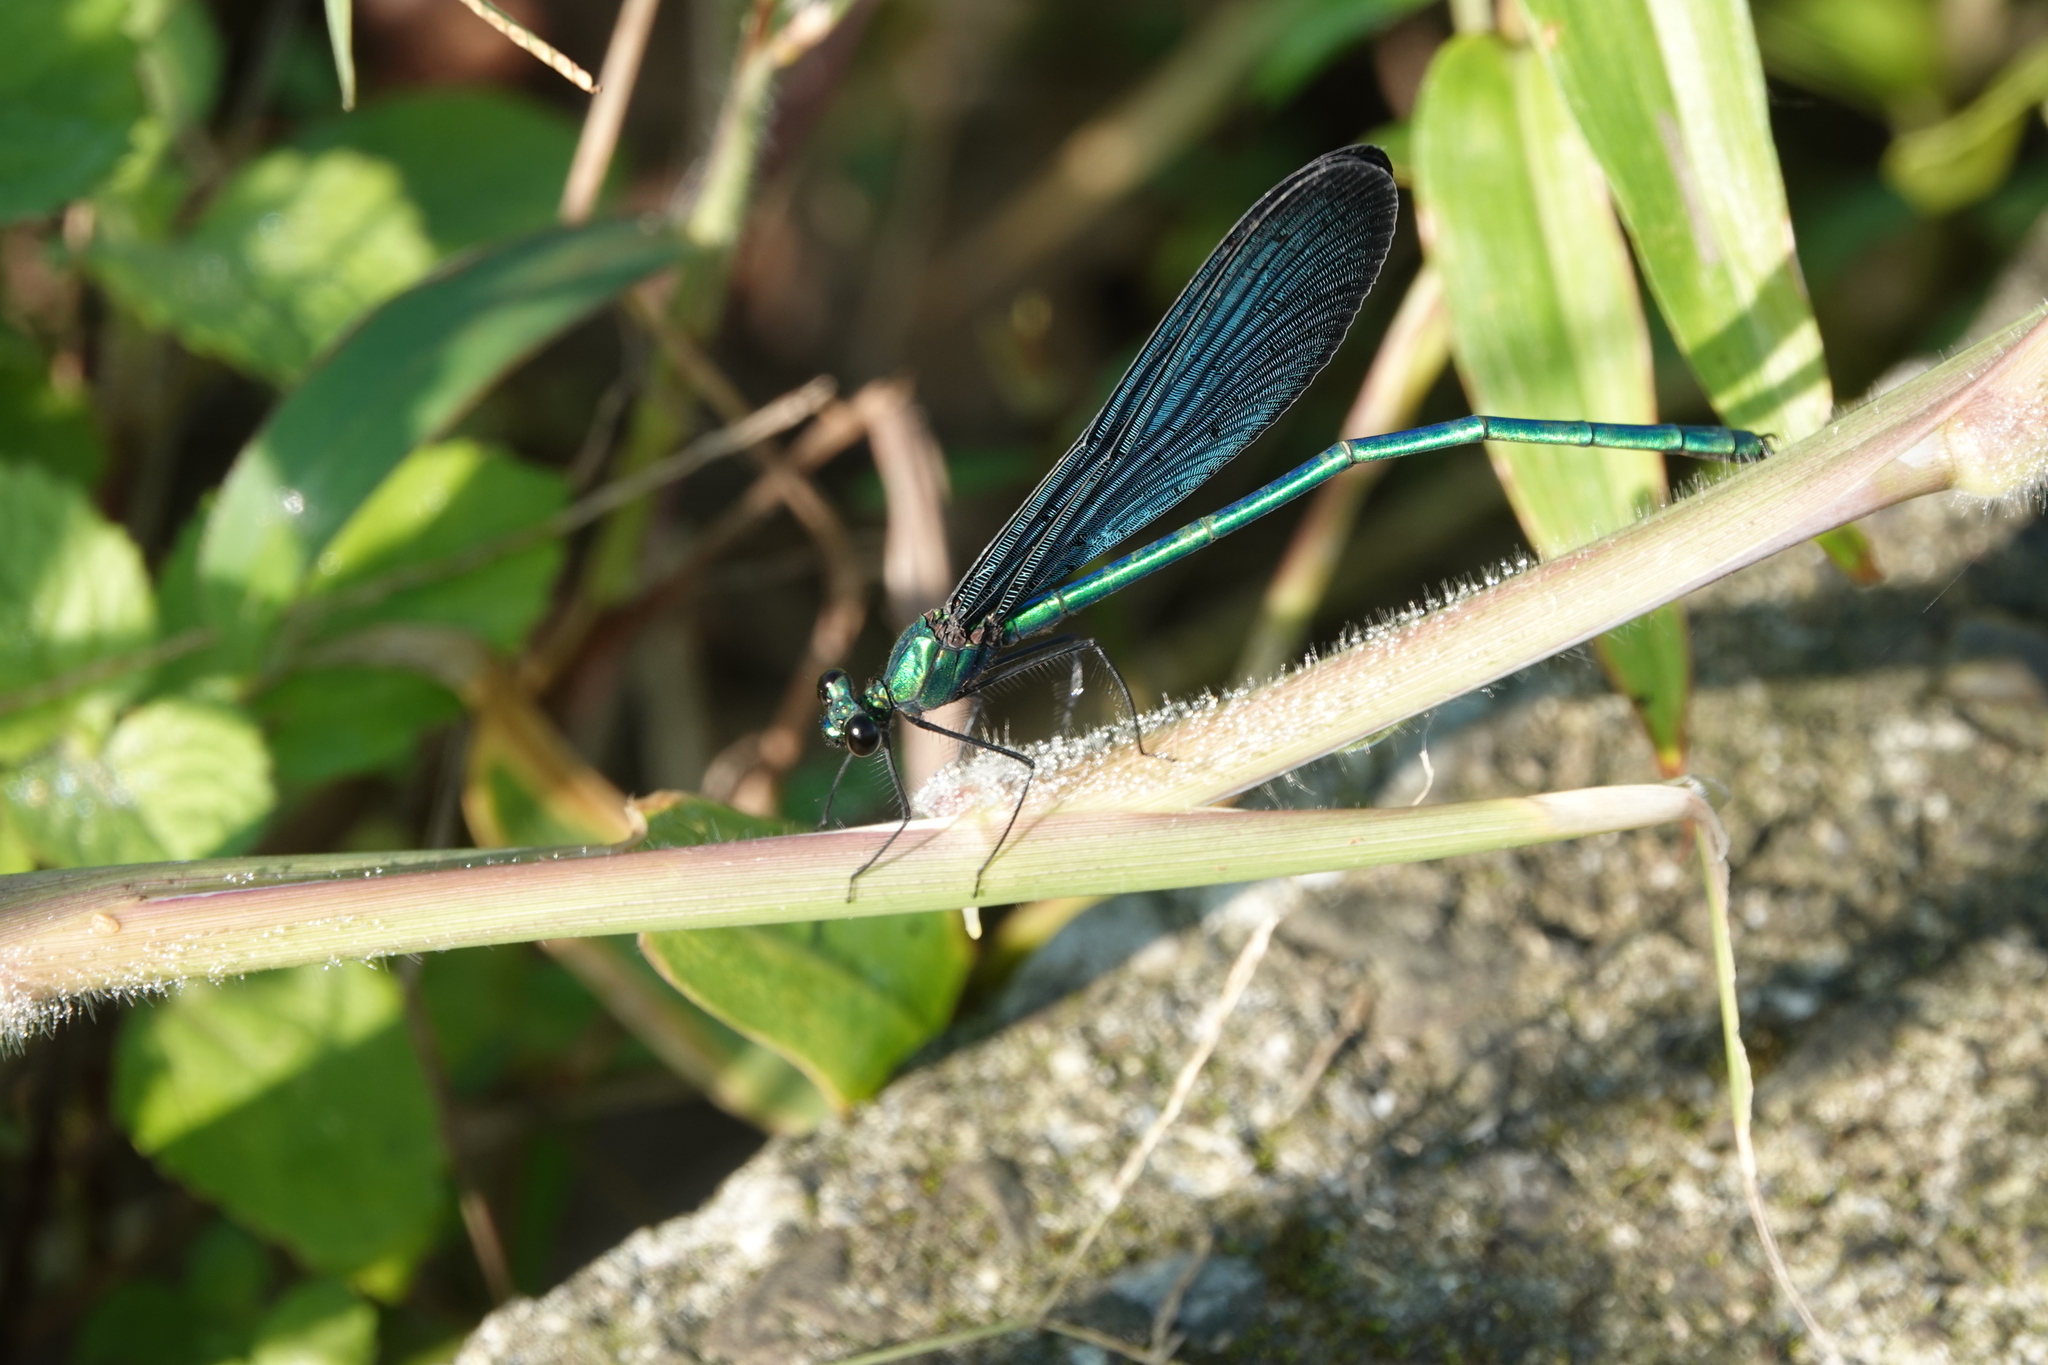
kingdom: Animalia
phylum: Arthropoda
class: Insecta
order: Odonata
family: Calopterygidae
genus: Matrona
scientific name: Matrona cyanoptera
